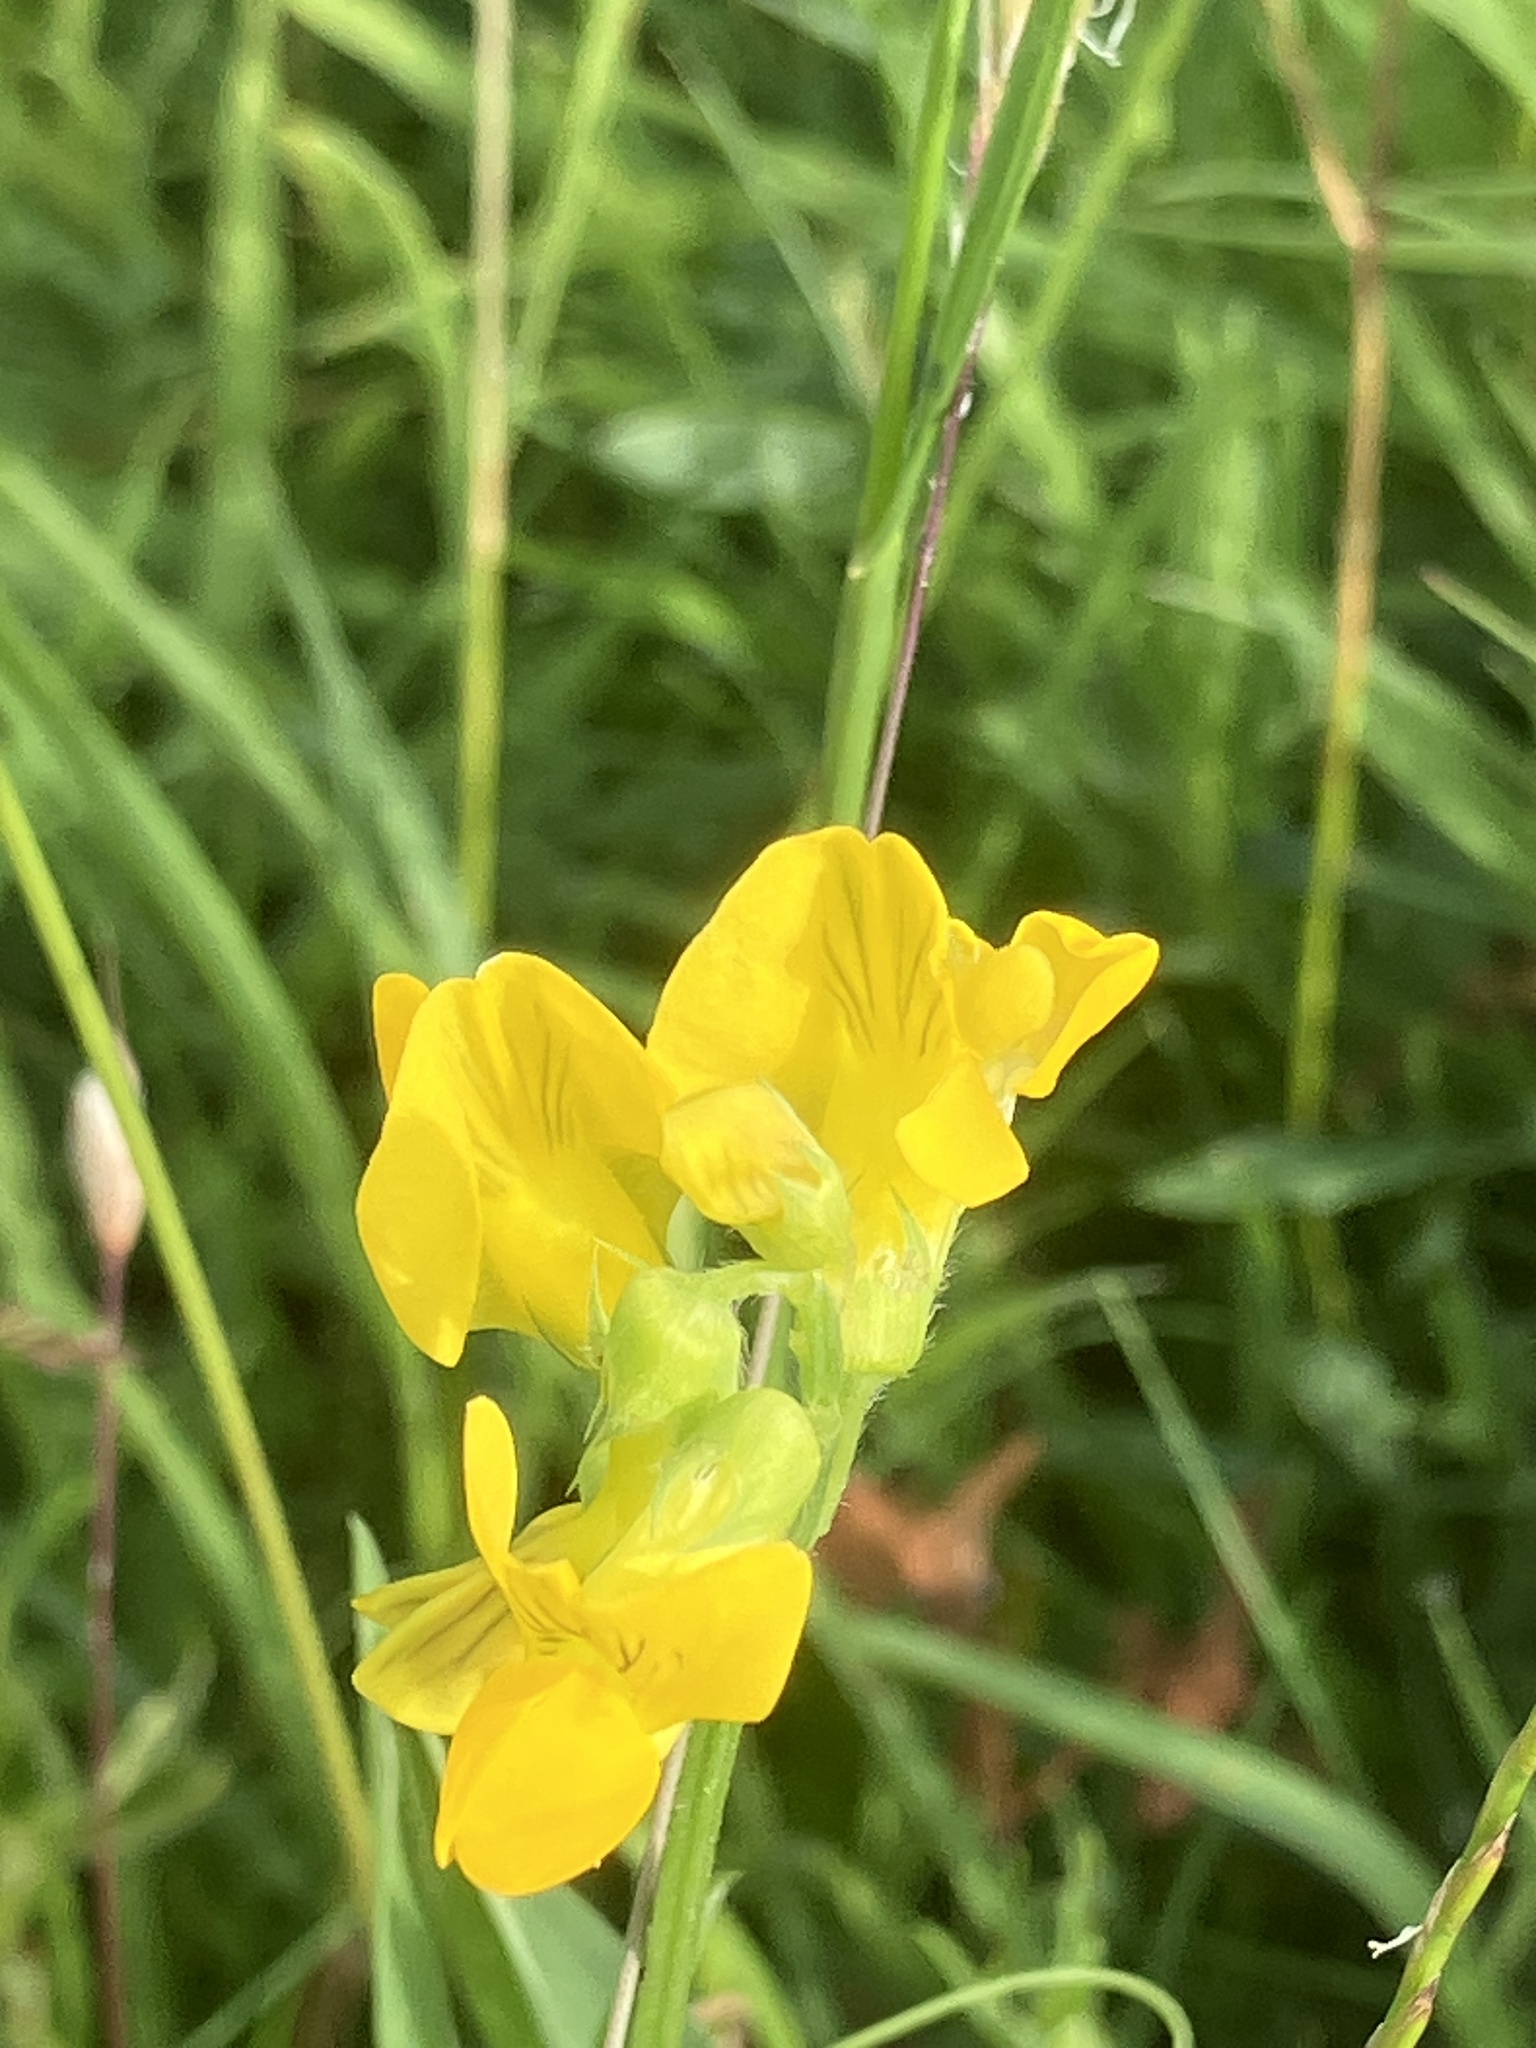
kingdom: Plantae
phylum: Tracheophyta
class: Magnoliopsida
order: Fabales
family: Fabaceae
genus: Lathyrus
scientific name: Lathyrus pratensis
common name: Meadow vetchling
